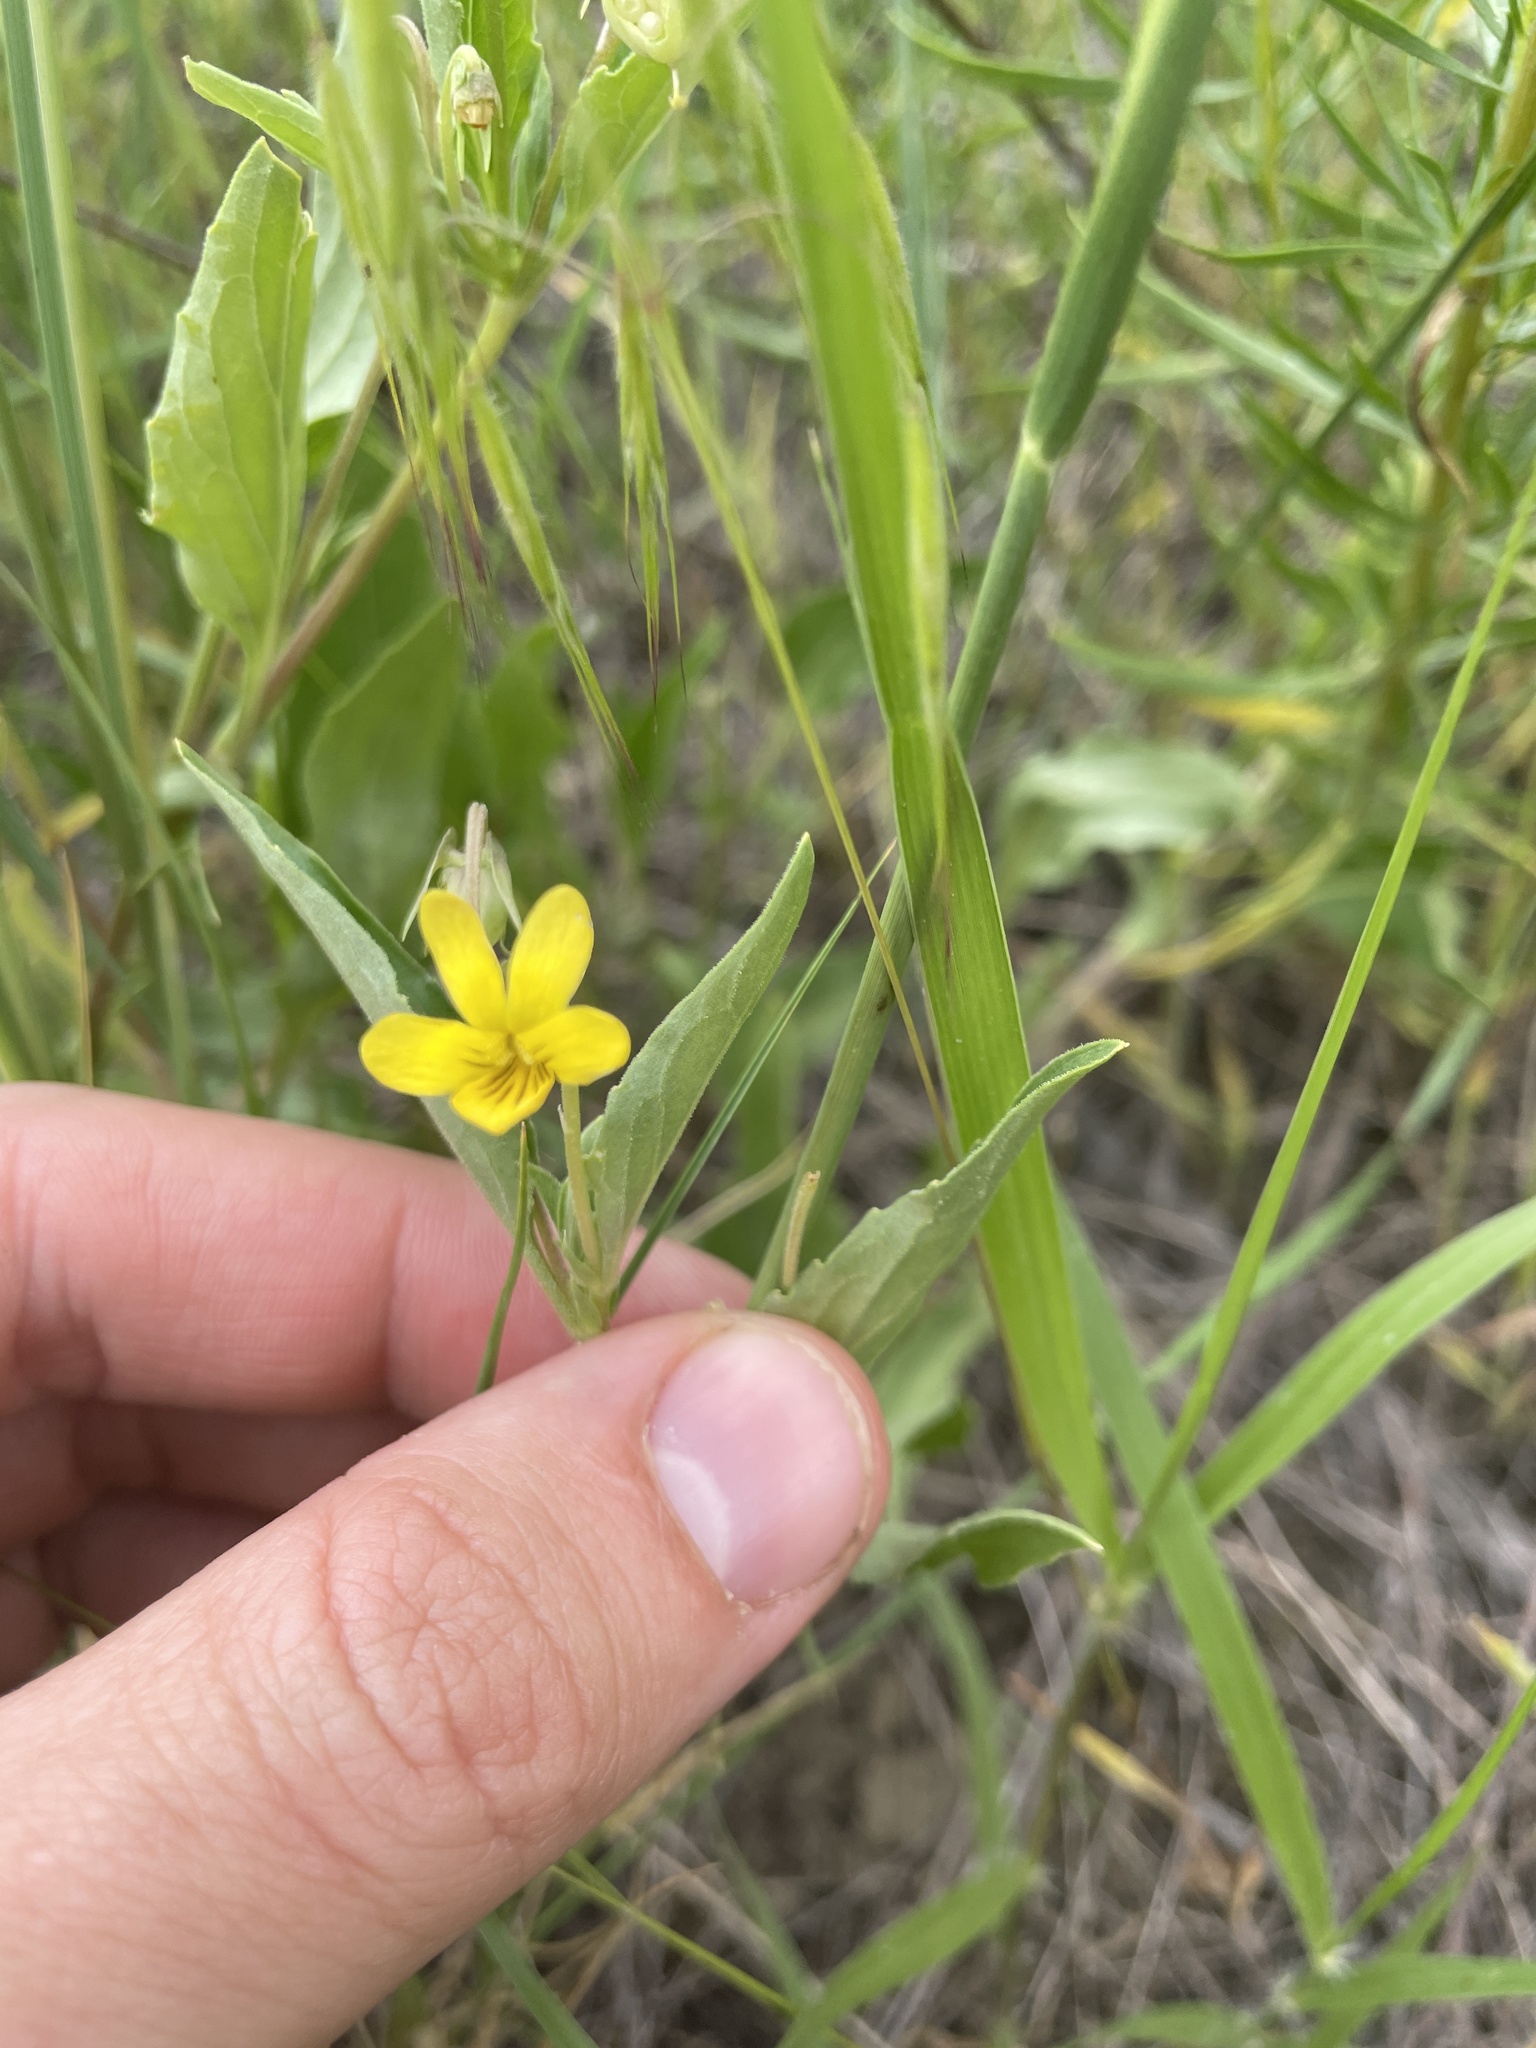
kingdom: Plantae
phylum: Tracheophyta
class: Magnoliopsida
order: Malpighiales
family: Violaceae
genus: Viola
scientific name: Viola nuttallii
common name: Yellow prairie violet
